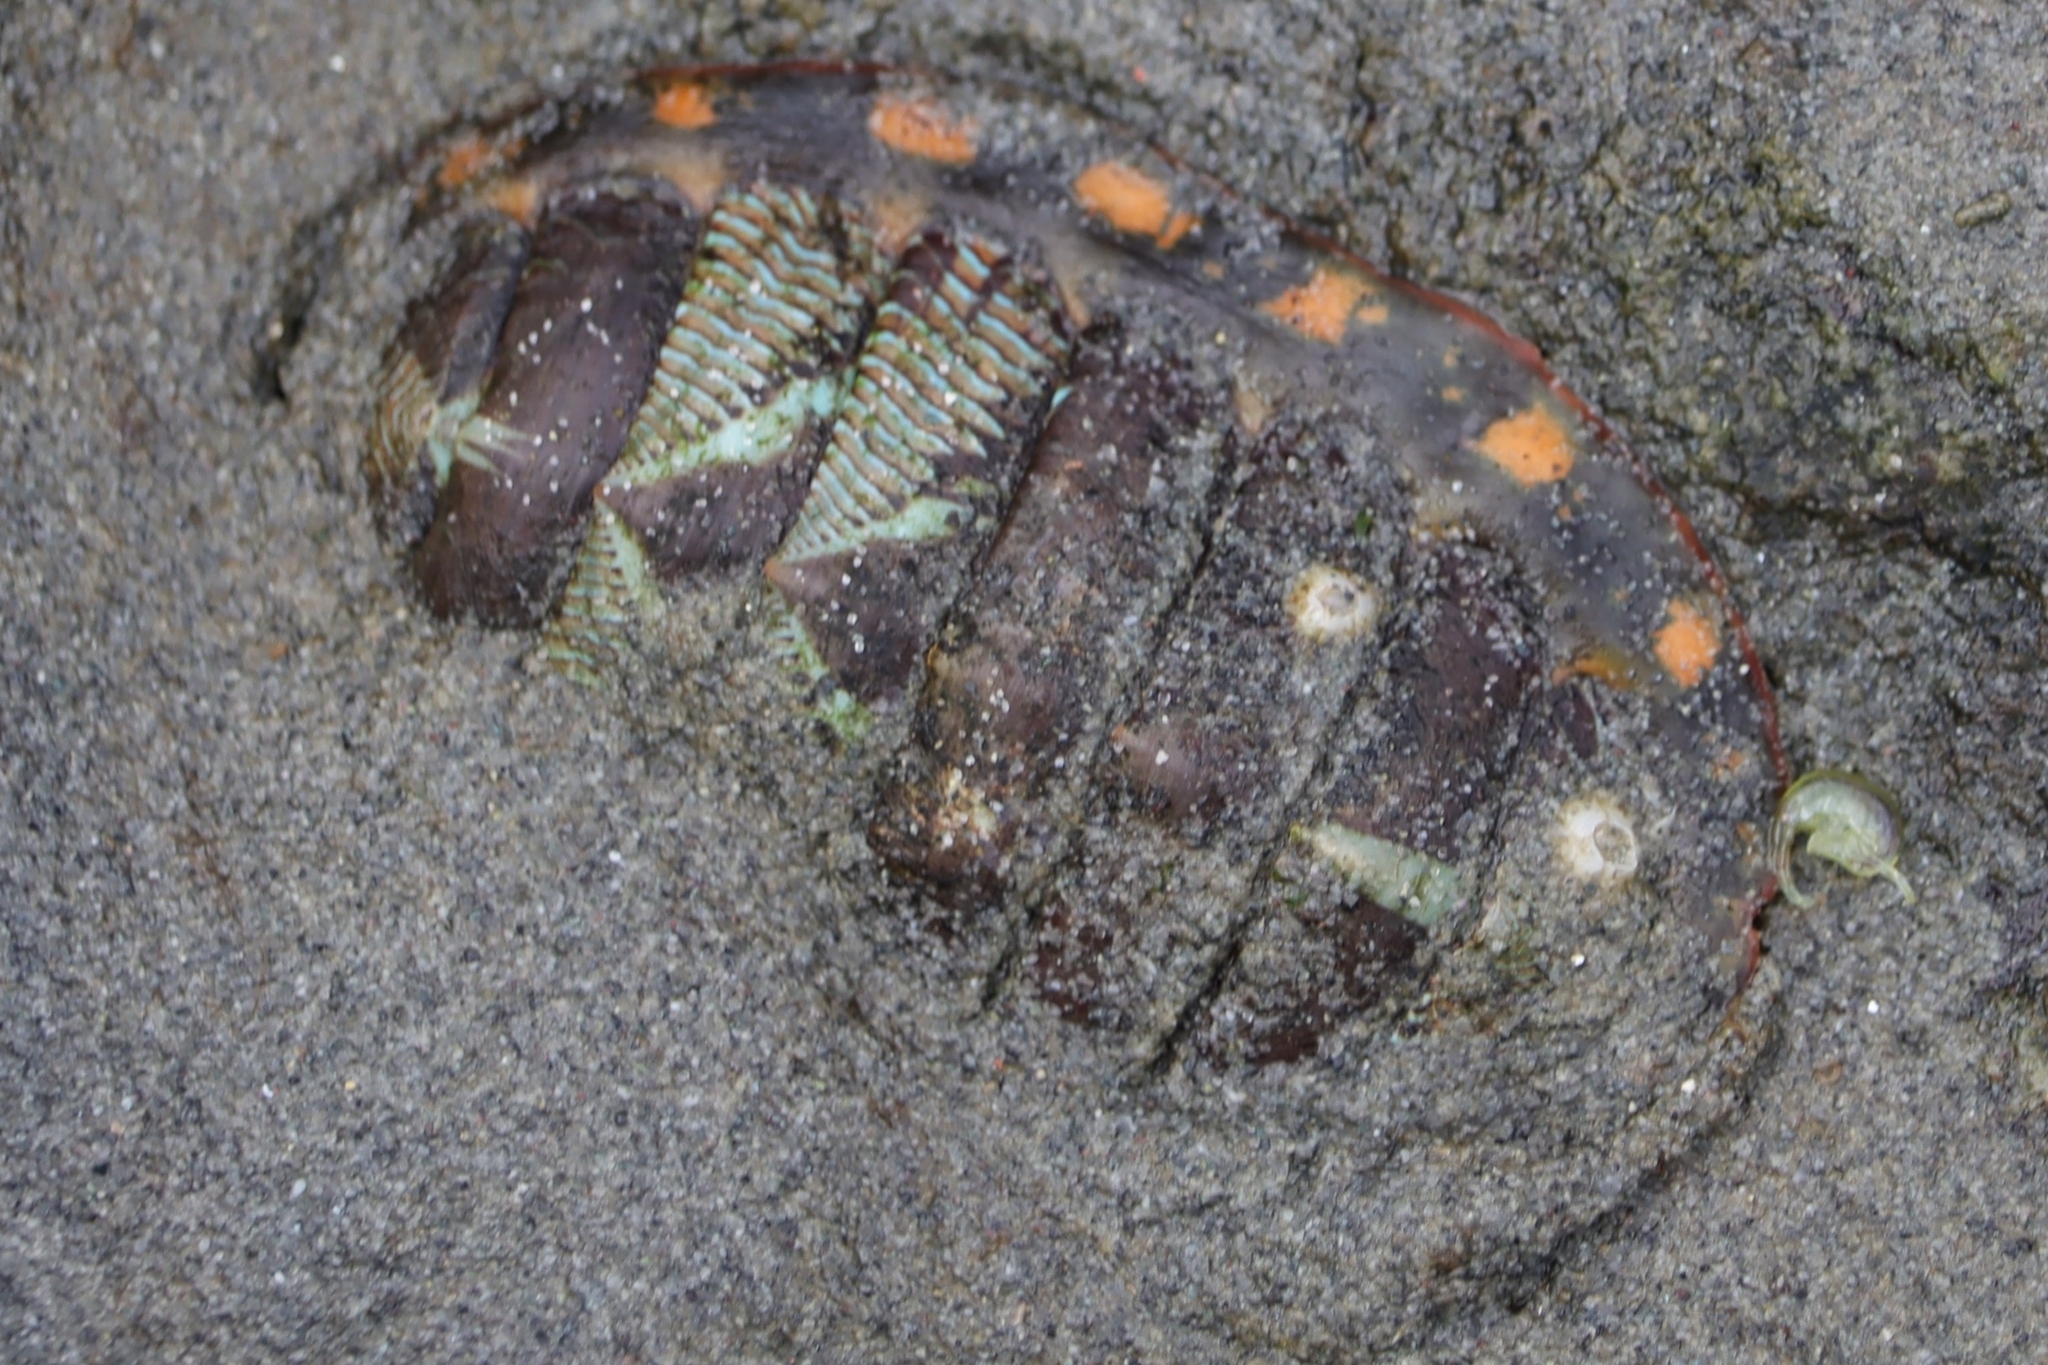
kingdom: Animalia
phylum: Mollusca
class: Polyplacophora
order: Chitonida
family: Tonicellidae
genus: Tonicella
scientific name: Tonicella lineata
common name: Lined chiton
